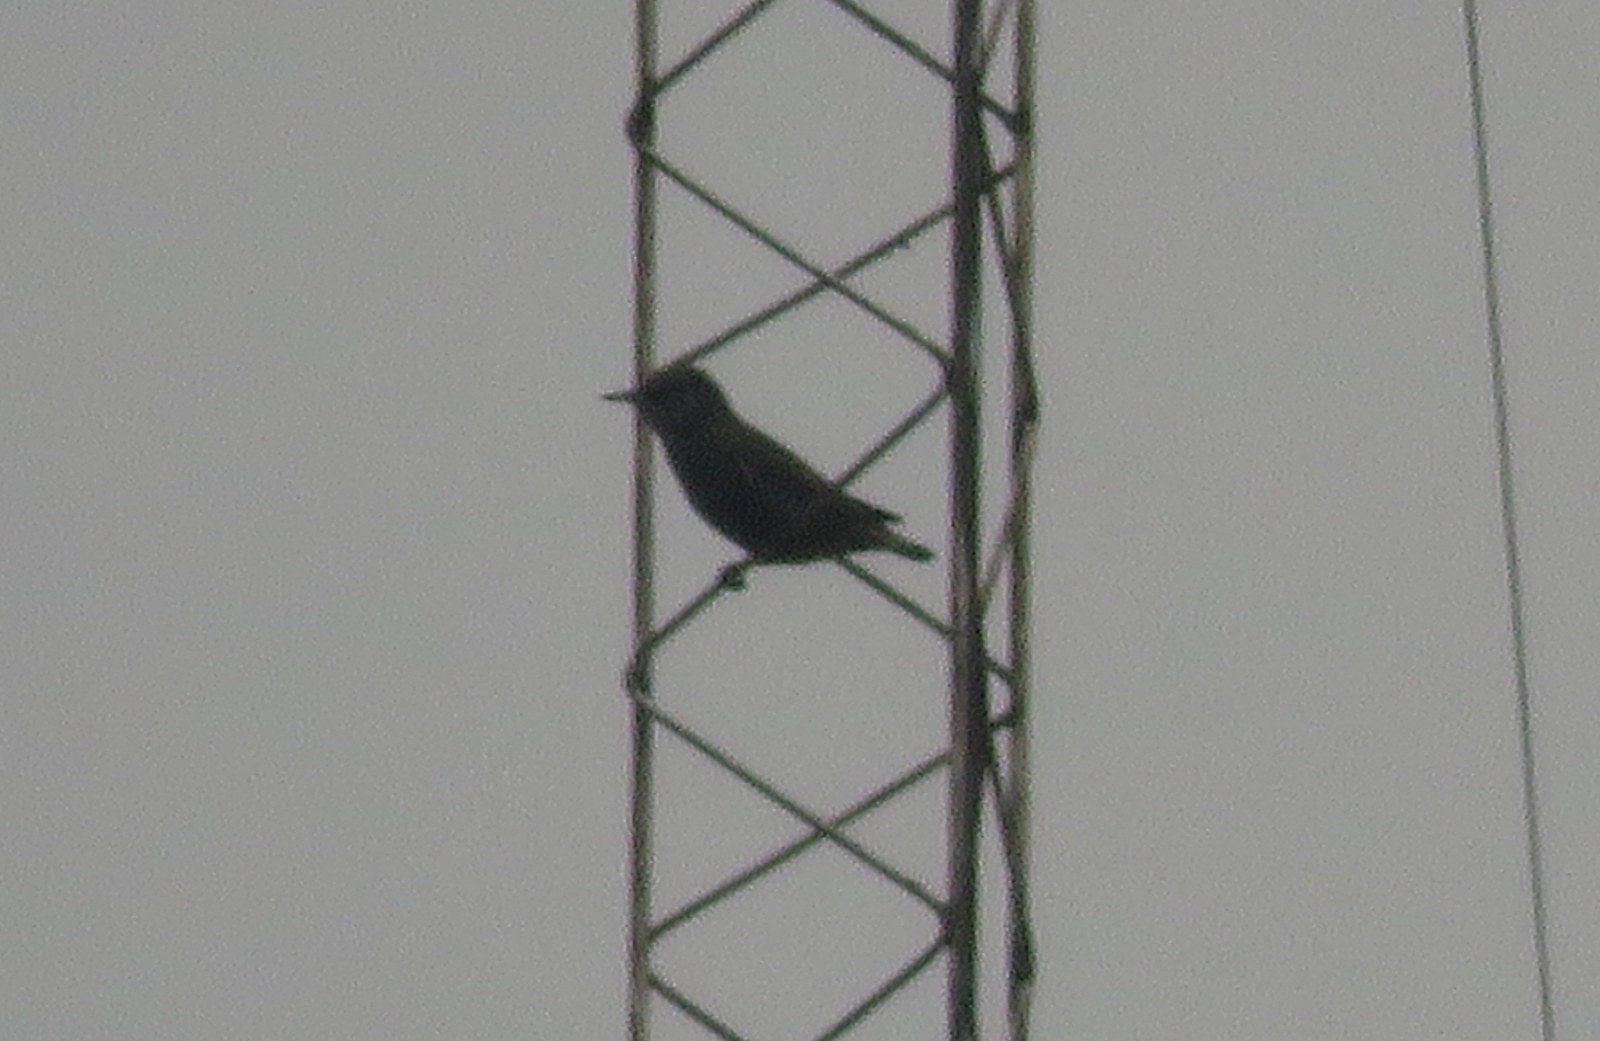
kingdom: Animalia
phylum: Chordata
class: Aves
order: Passeriformes
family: Sturnidae
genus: Sturnus
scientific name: Sturnus vulgaris
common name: Common starling
